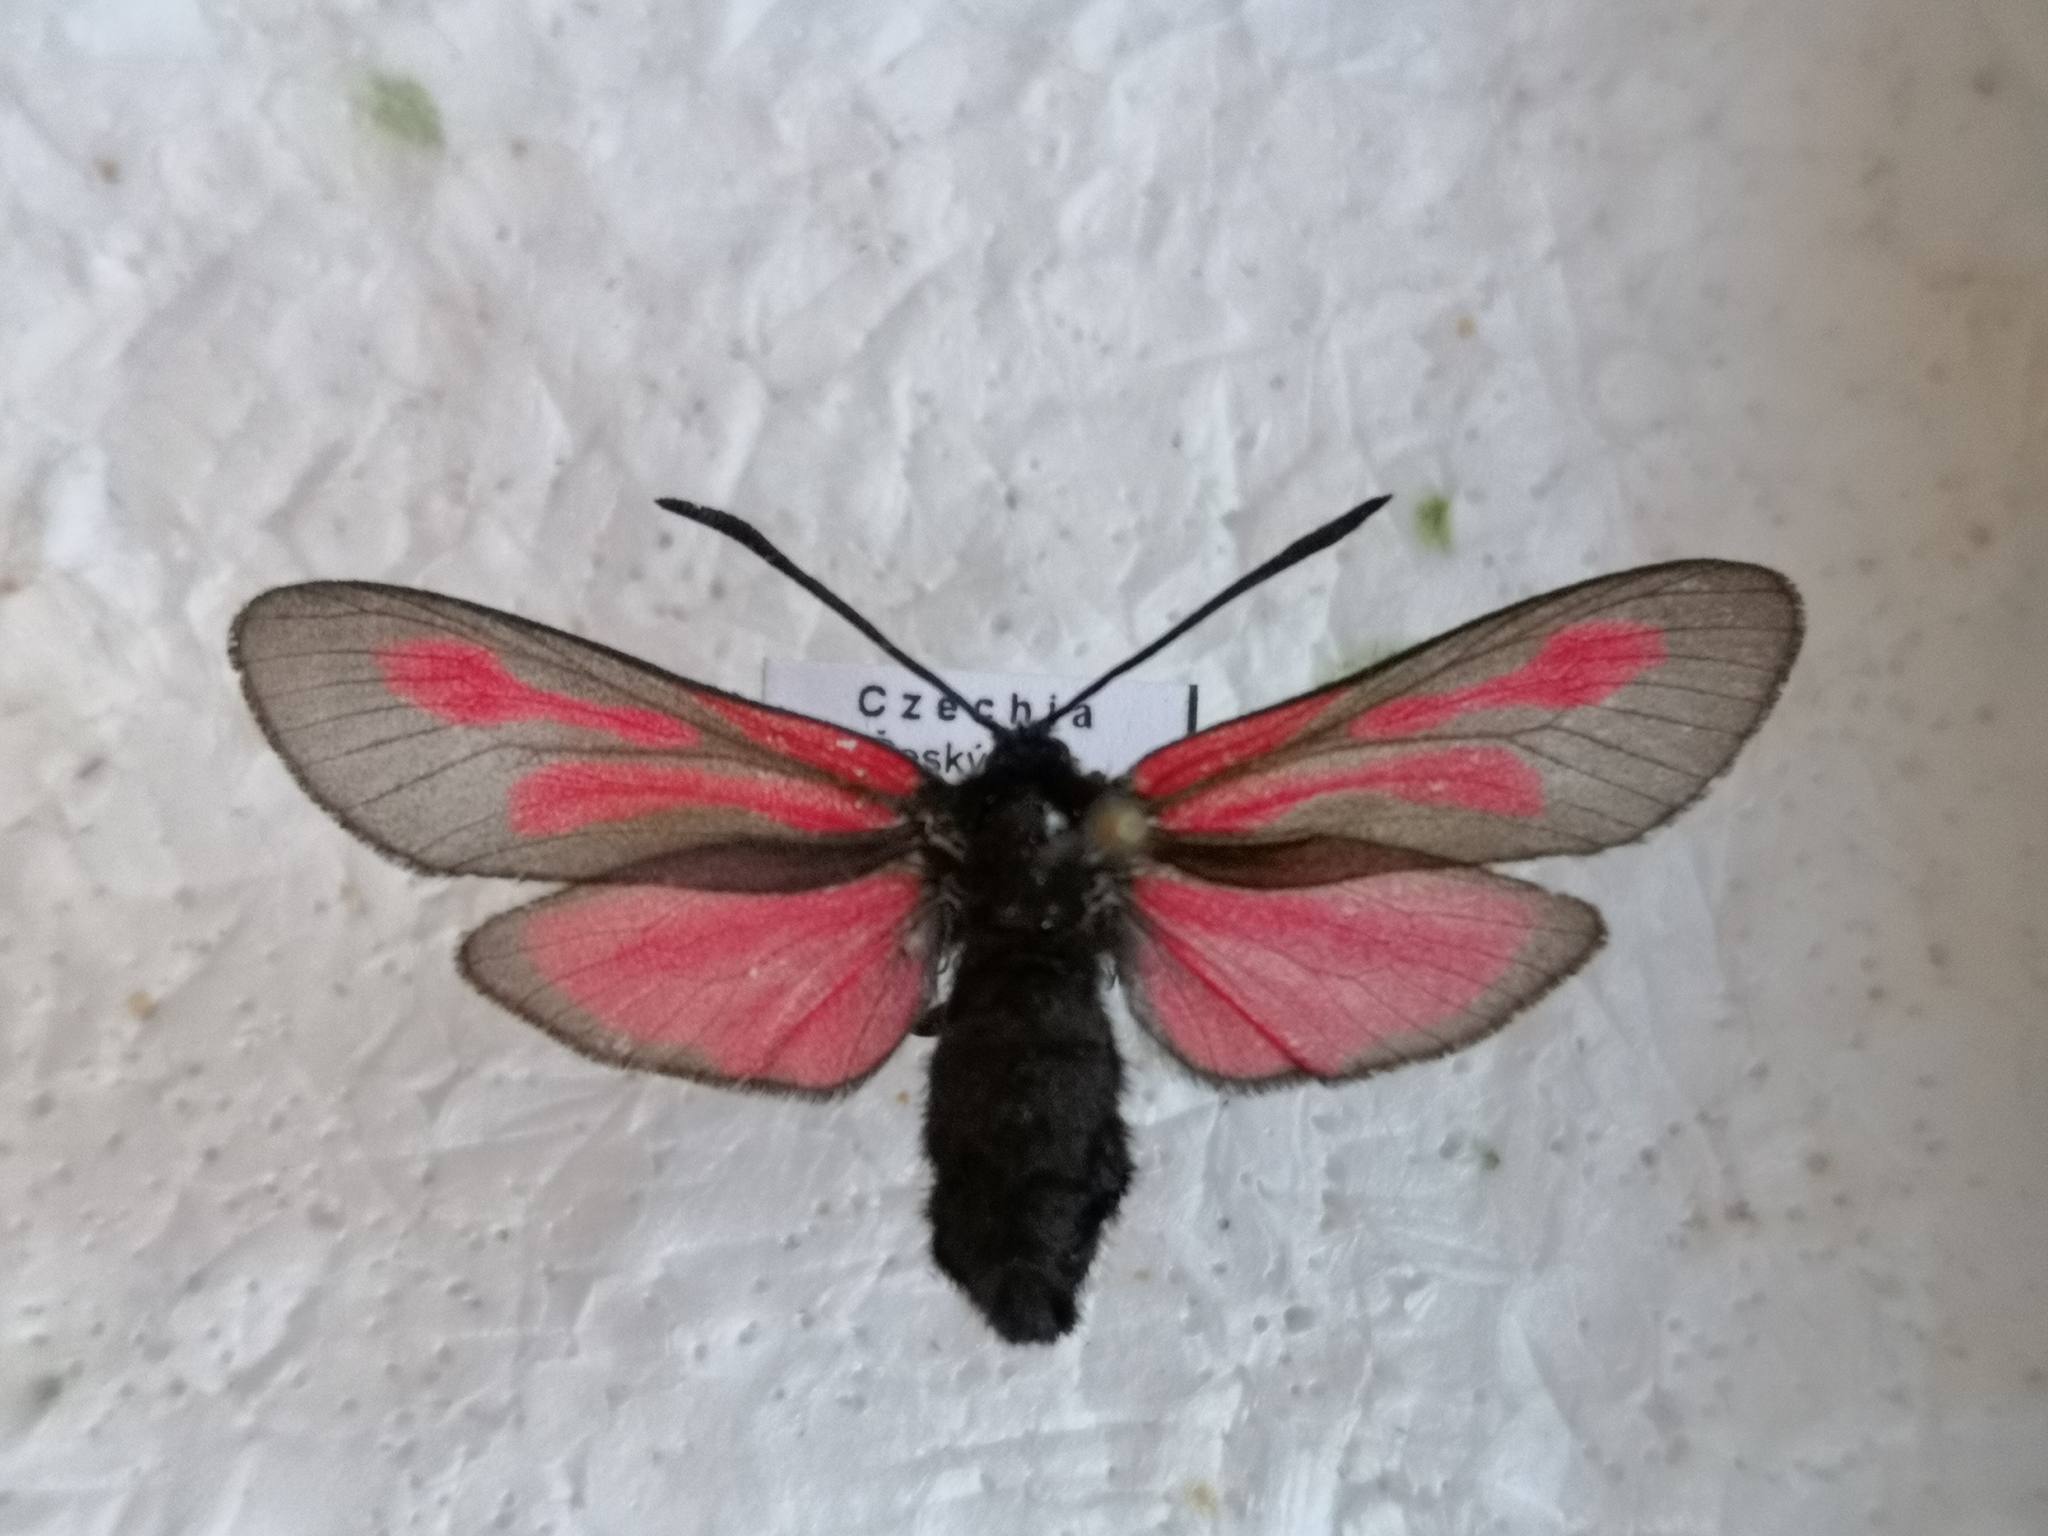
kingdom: Animalia
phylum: Arthropoda
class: Insecta
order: Lepidoptera
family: Zygaenidae
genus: Zygaena
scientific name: Zygaena osterodensis
